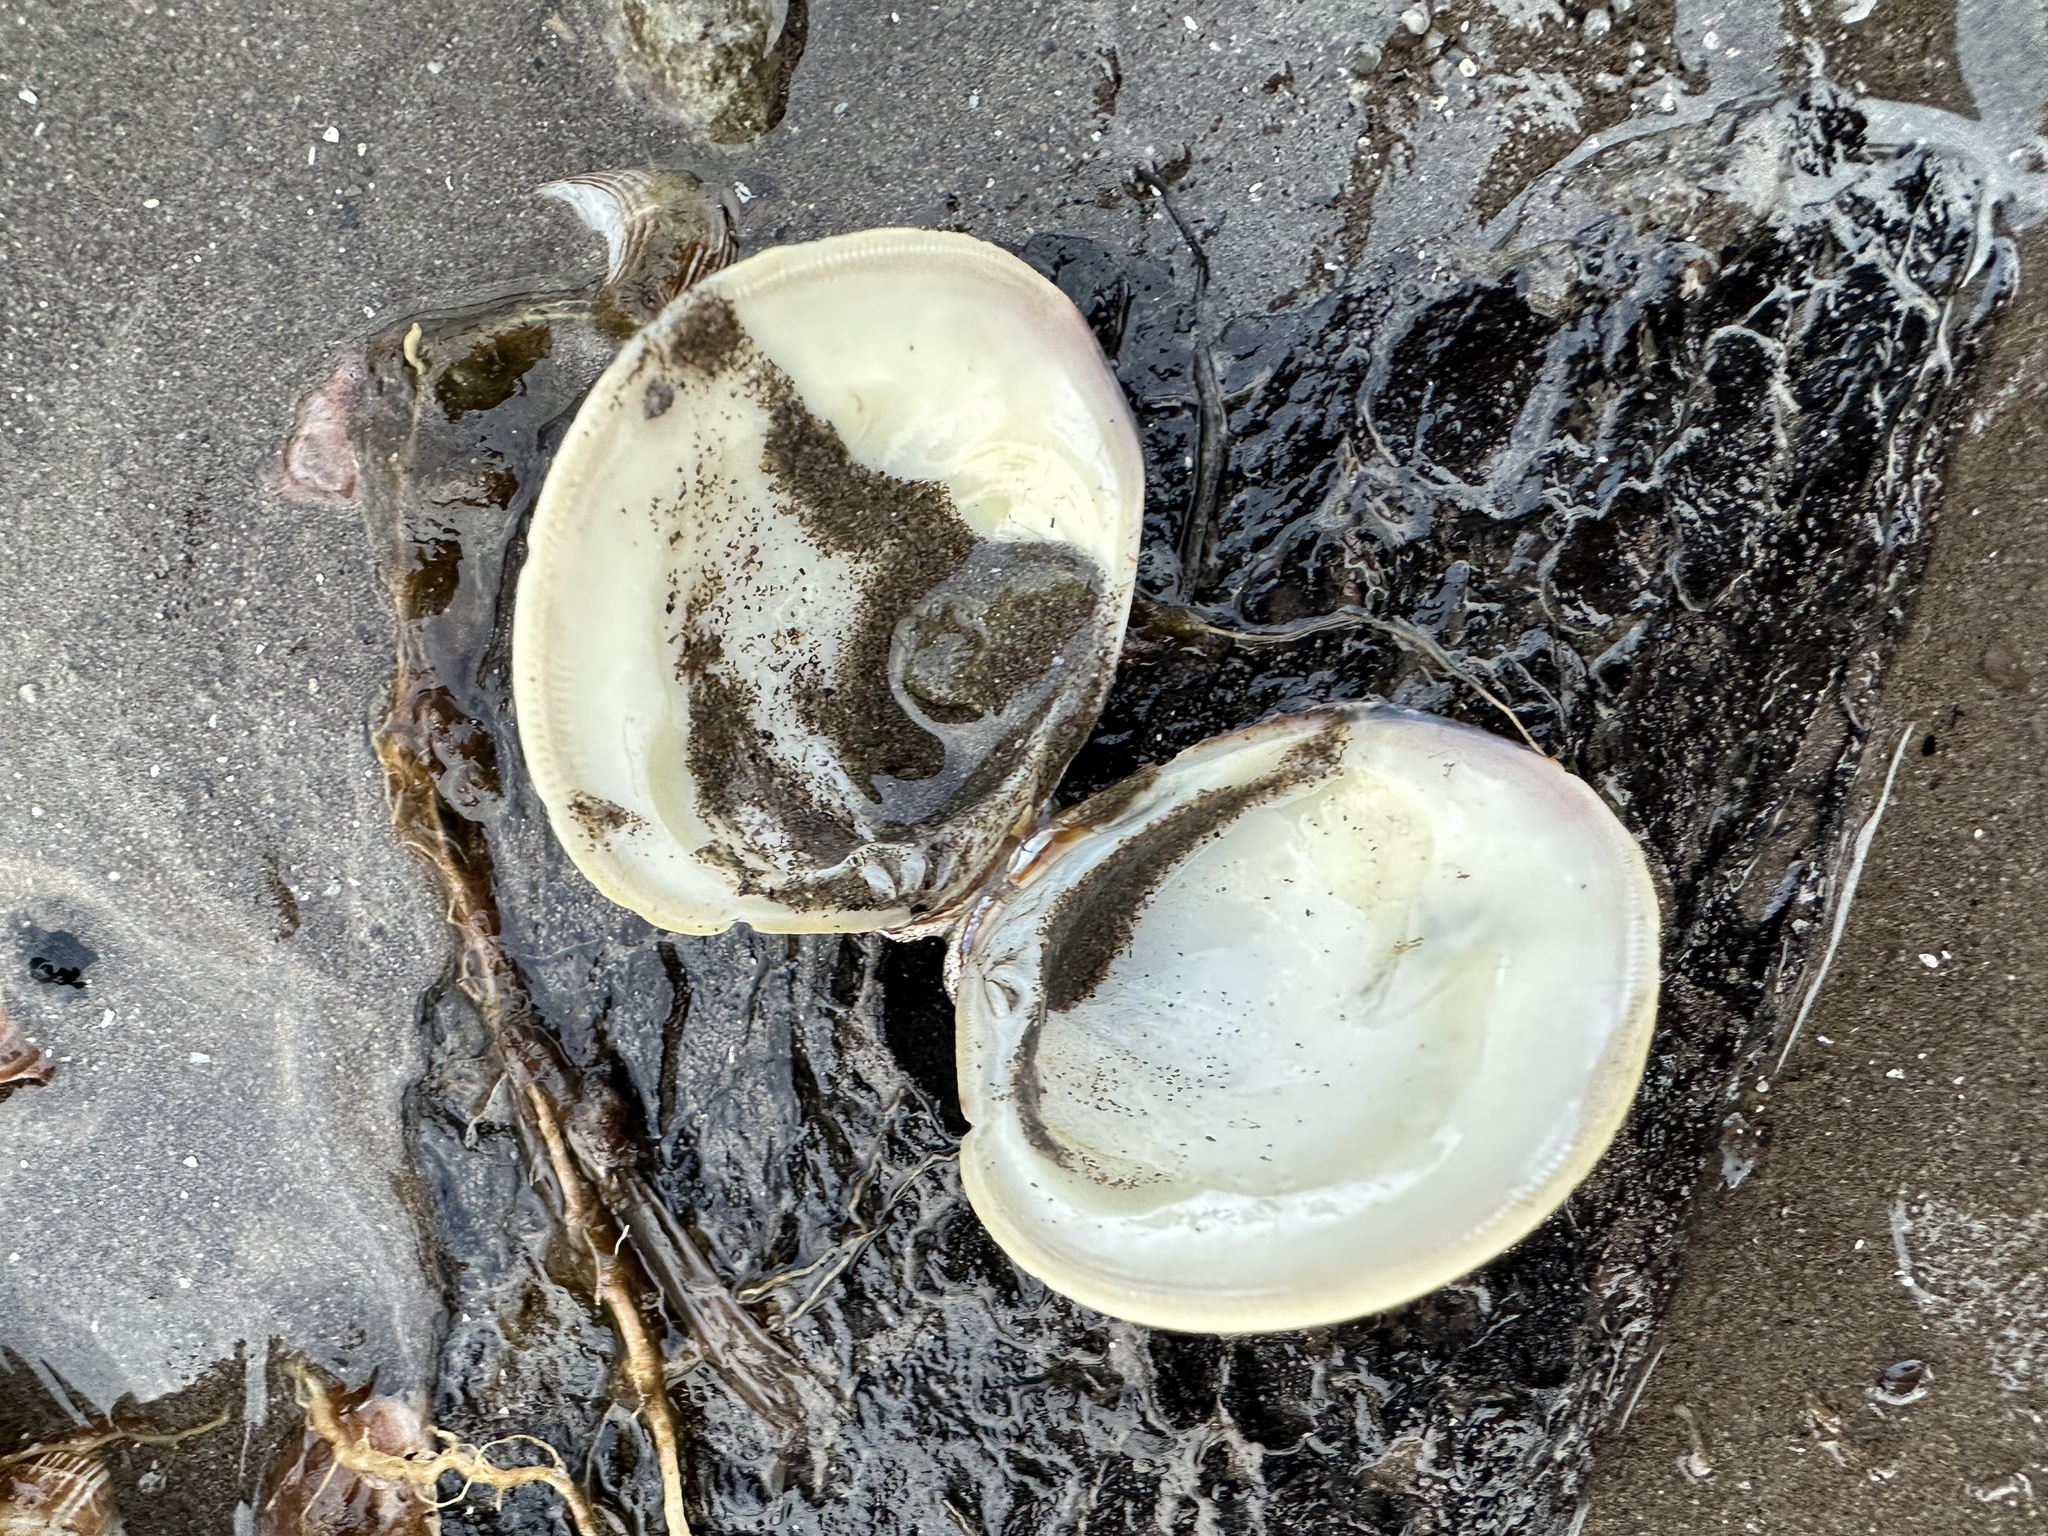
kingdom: Animalia
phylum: Mollusca
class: Bivalvia
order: Venerida
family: Veneridae
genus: Mercenaria
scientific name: Mercenaria mercenaria
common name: American hard-shelled clam
